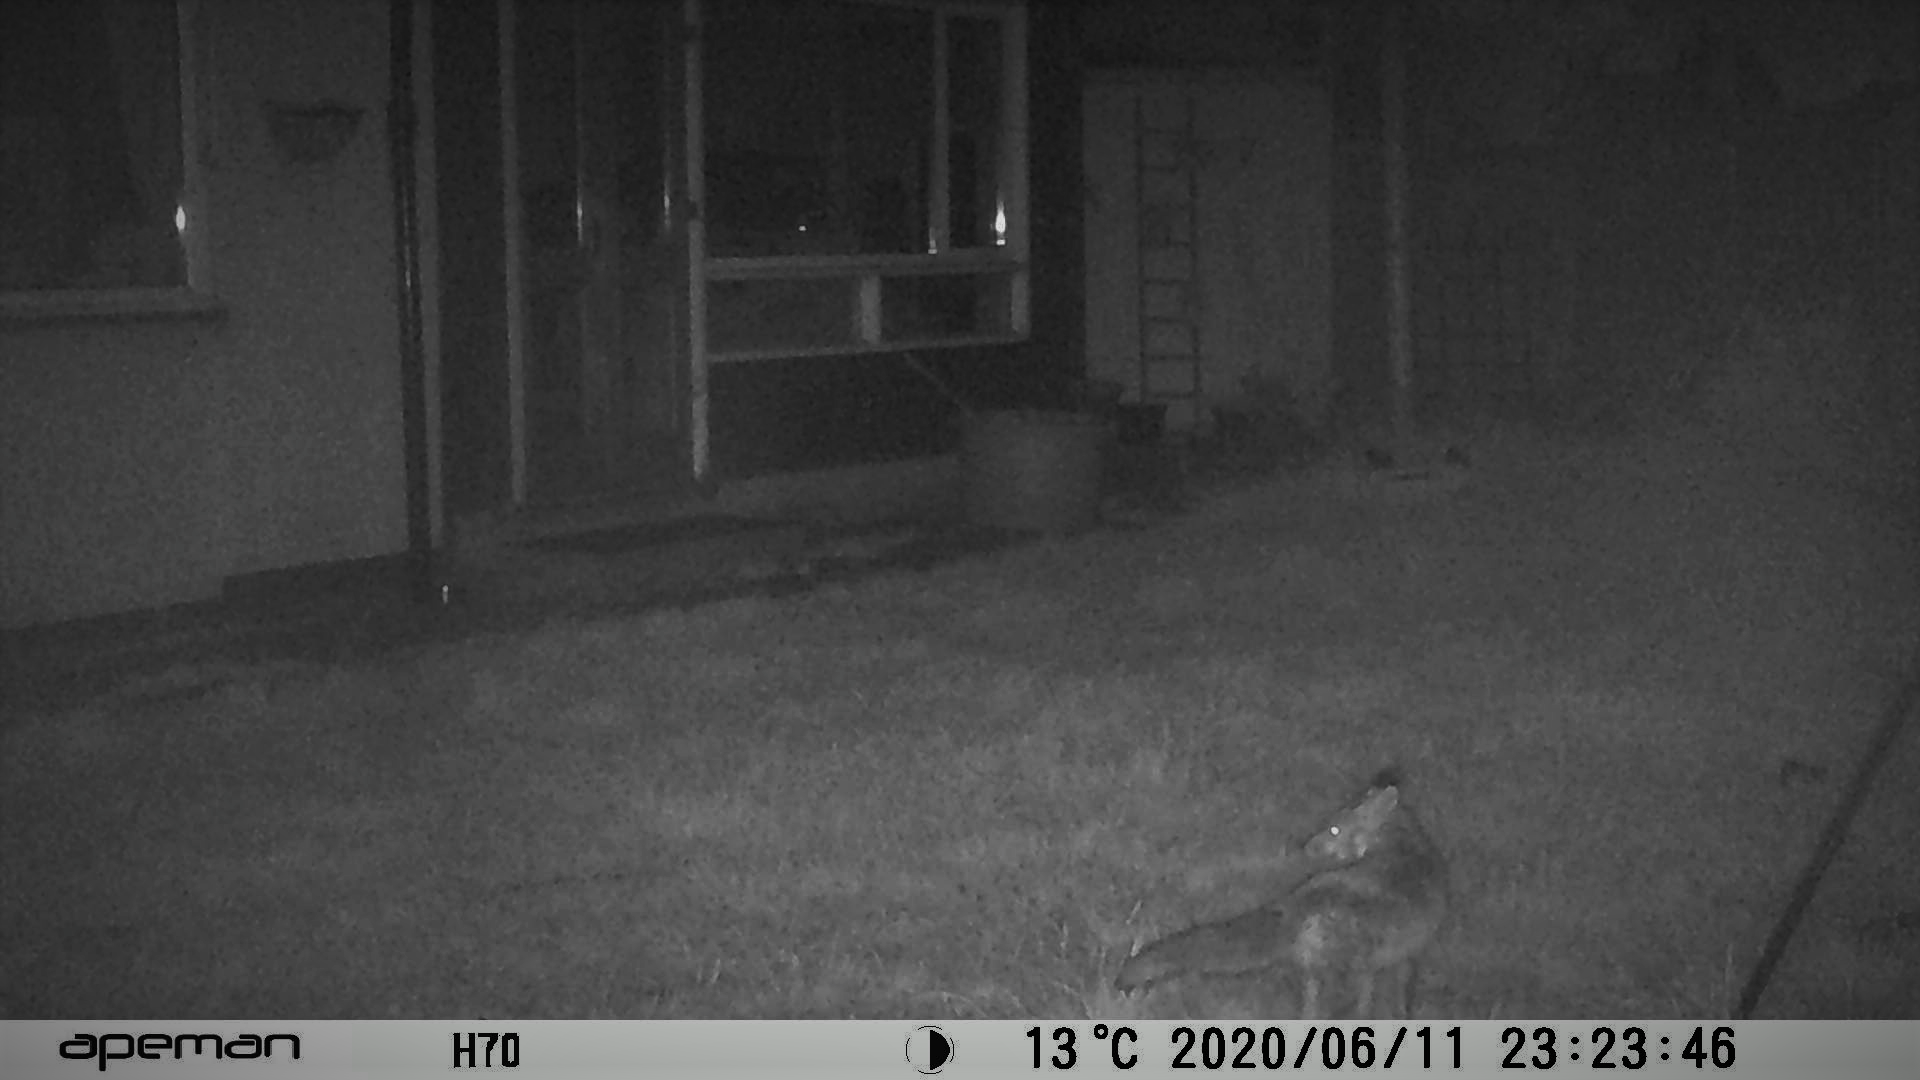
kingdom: Animalia
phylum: Chordata
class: Mammalia
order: Carnivora
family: Canidae
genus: Vulpes
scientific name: Vulpes vulpes
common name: Red fox
